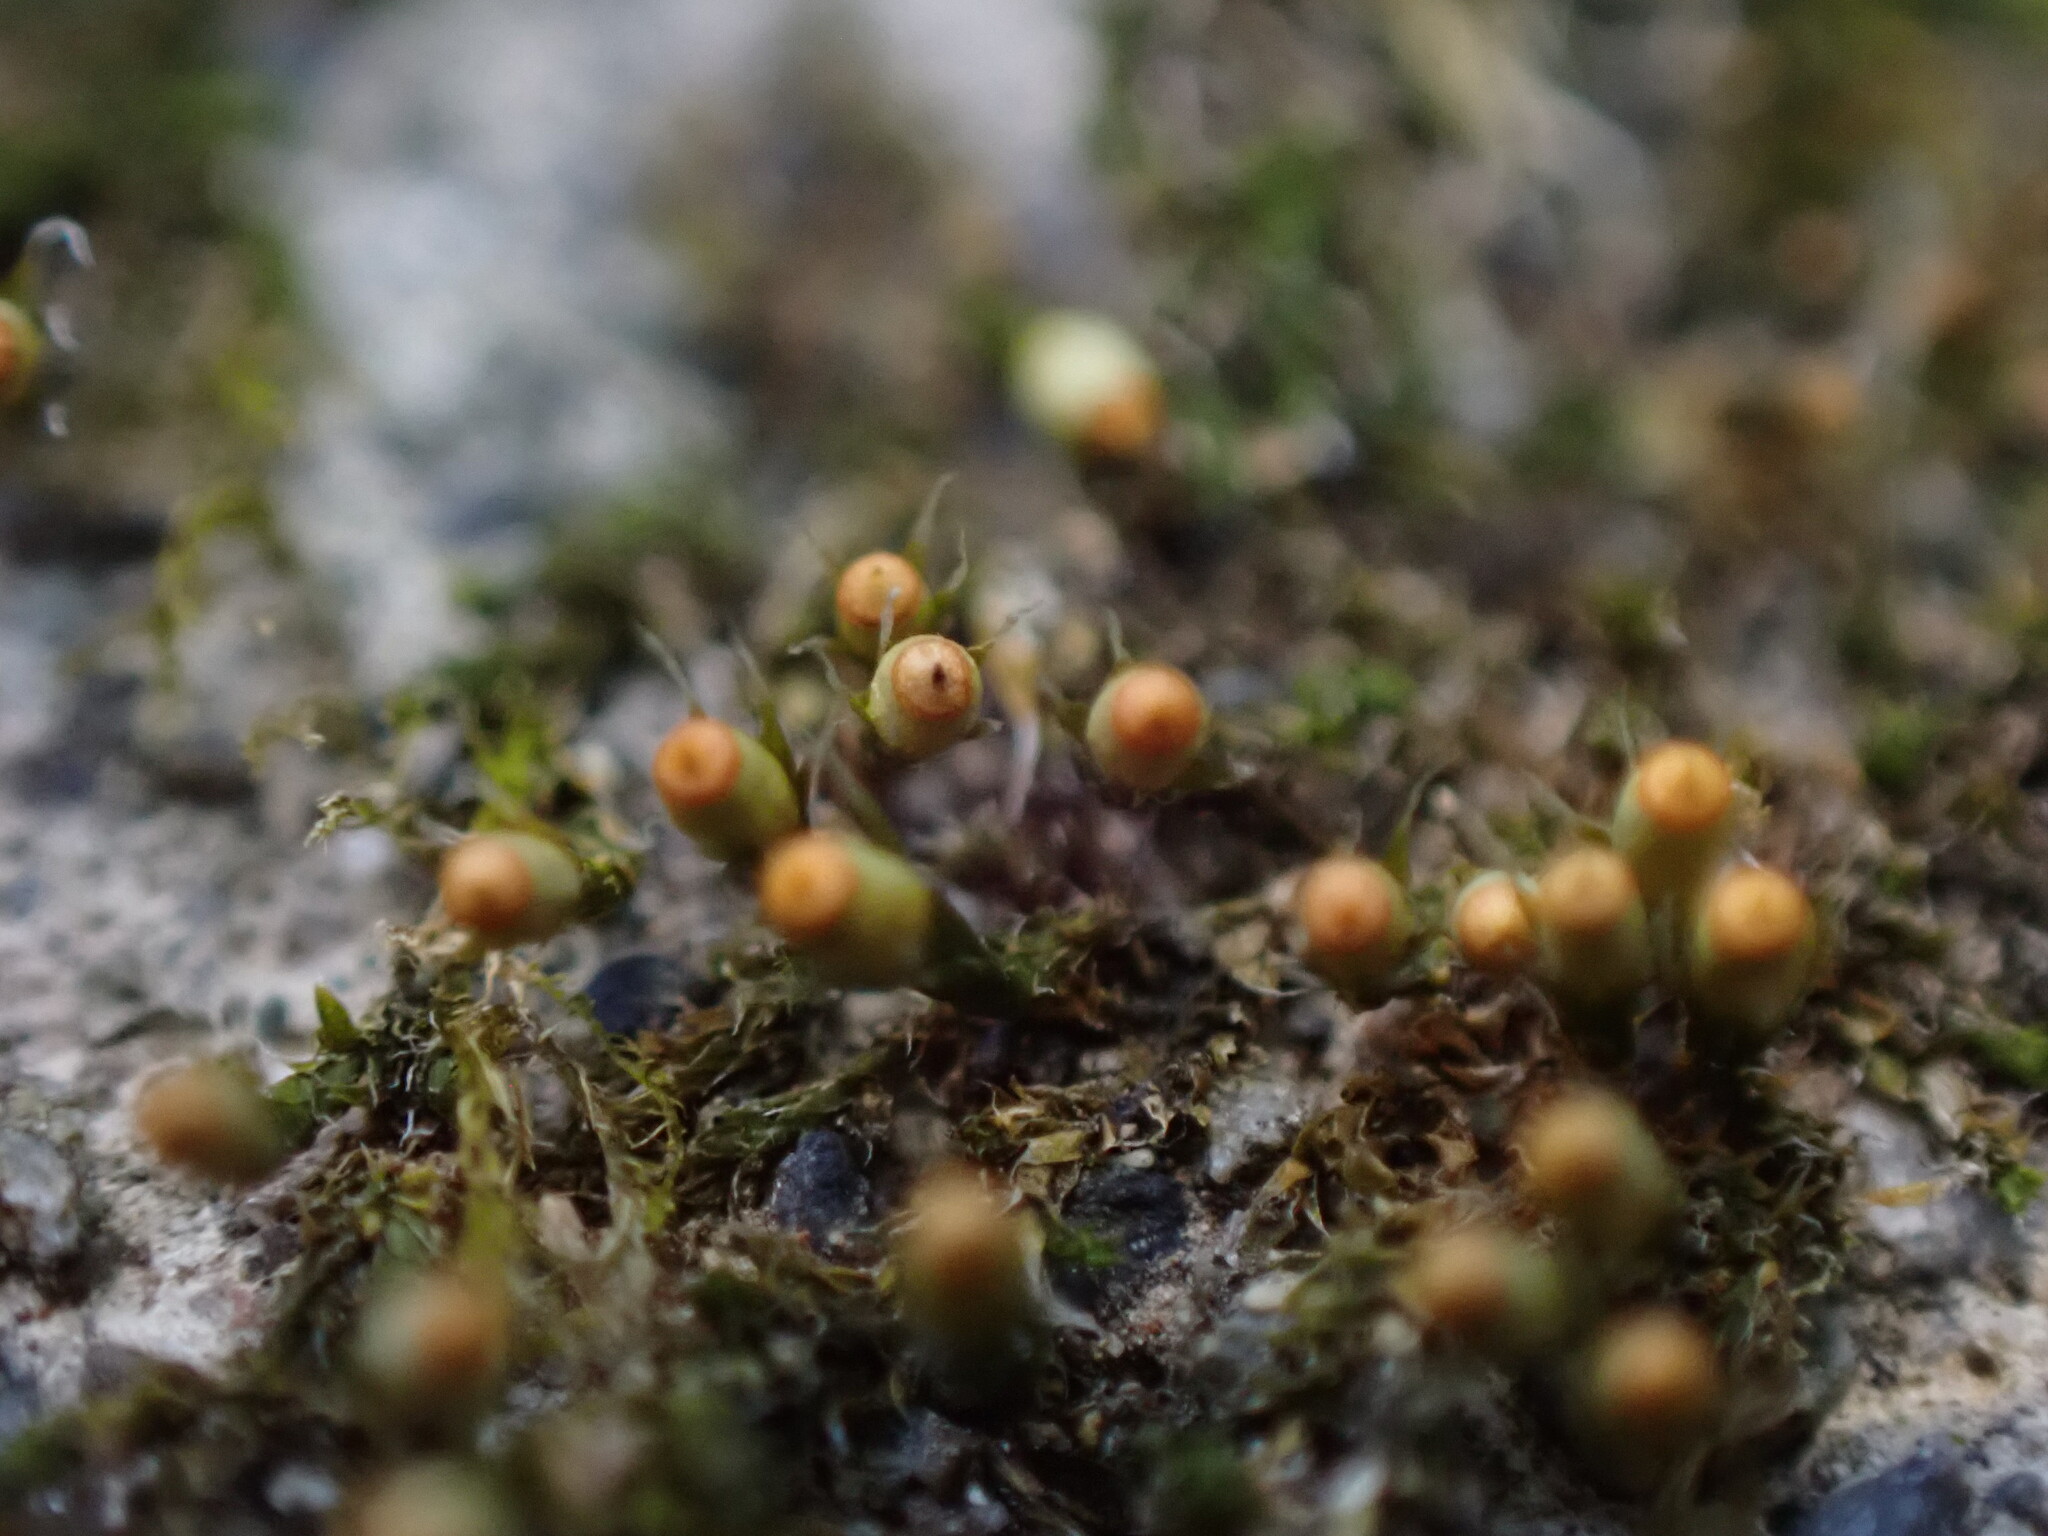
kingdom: Plantae
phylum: Bryophyta
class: Bryopsida
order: Dicranales
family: Erpodiaceae
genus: Venturiella
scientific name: Venturiella sinensis
